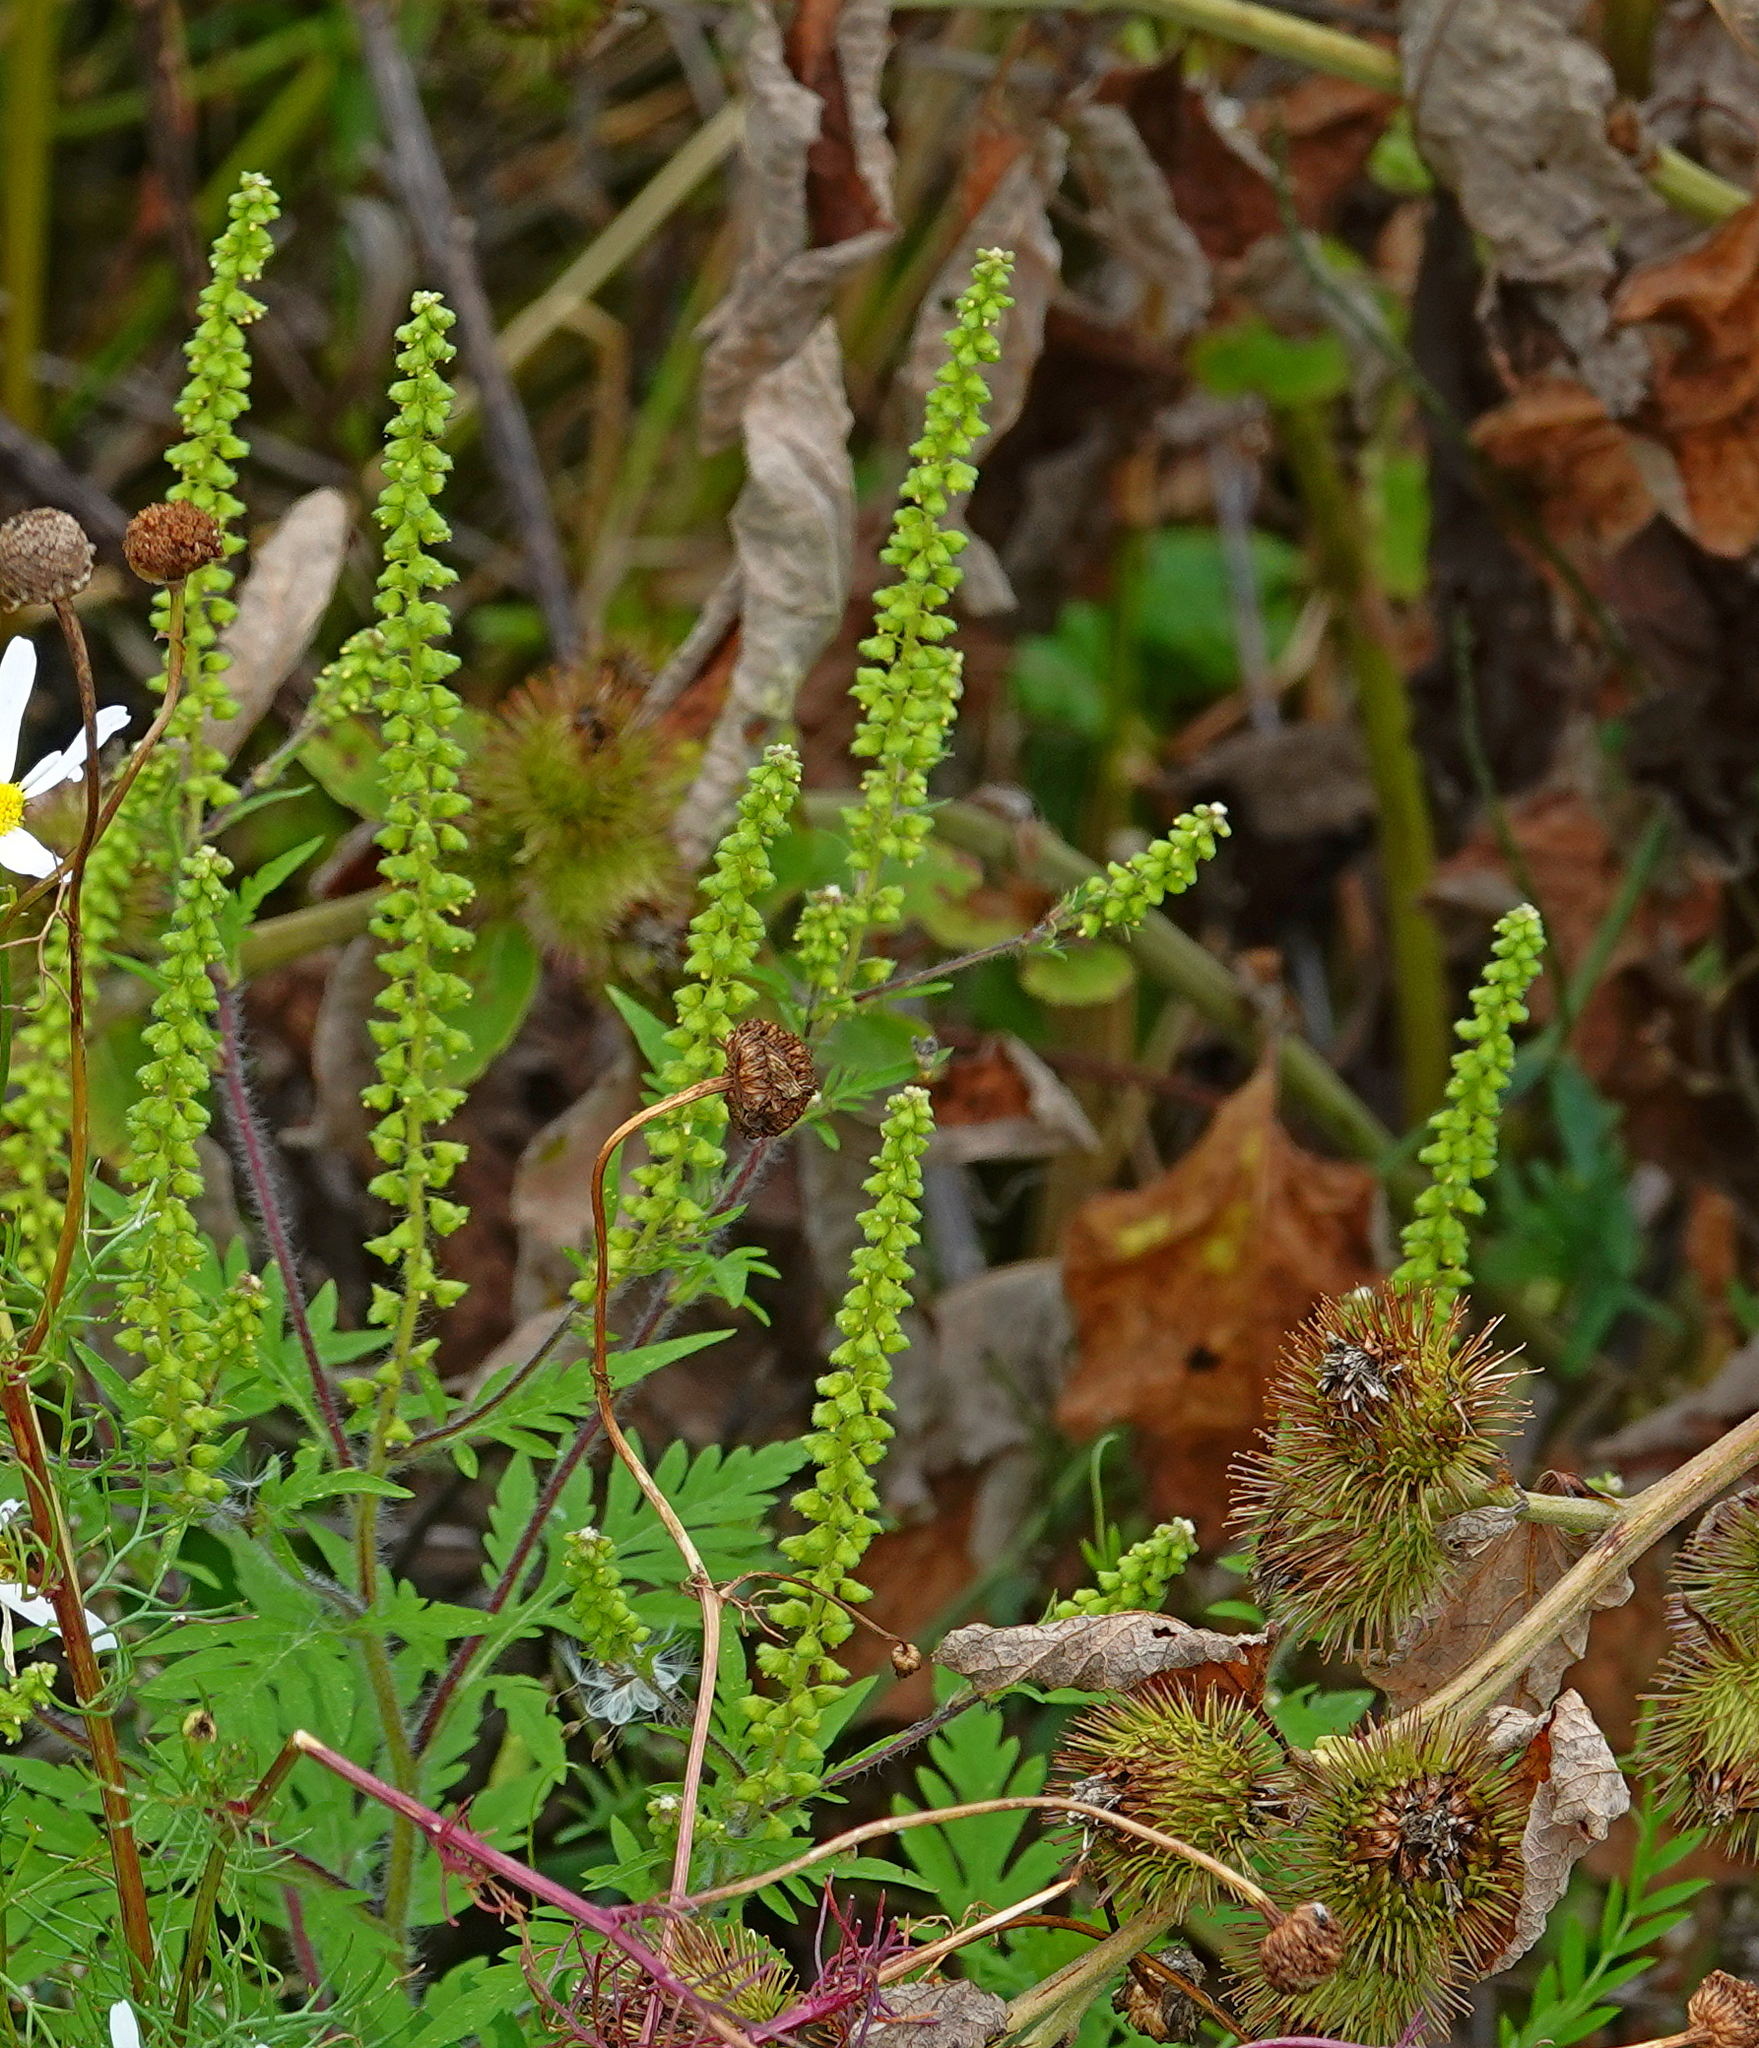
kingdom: Plantae
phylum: Tracheophyta
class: Magnoliopsida
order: Asterales
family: Asteraceae
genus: Ambrosia
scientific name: Ambrosia artemisiifolia
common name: Annual ragweed
